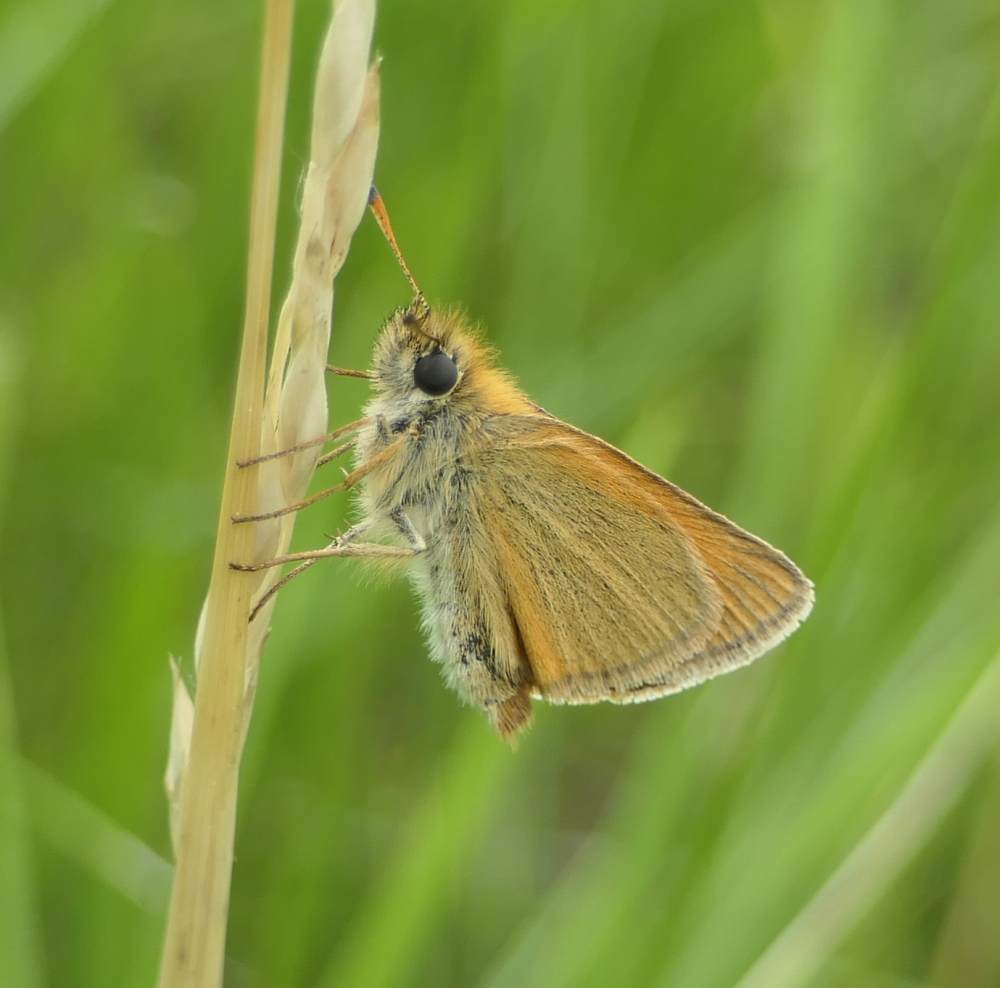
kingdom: Animalia
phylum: Arthropoda
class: Insecta
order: Lepidoptera
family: Hesperiidae
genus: Thymelicus
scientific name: Thymelicus lineola
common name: Essex skipper
